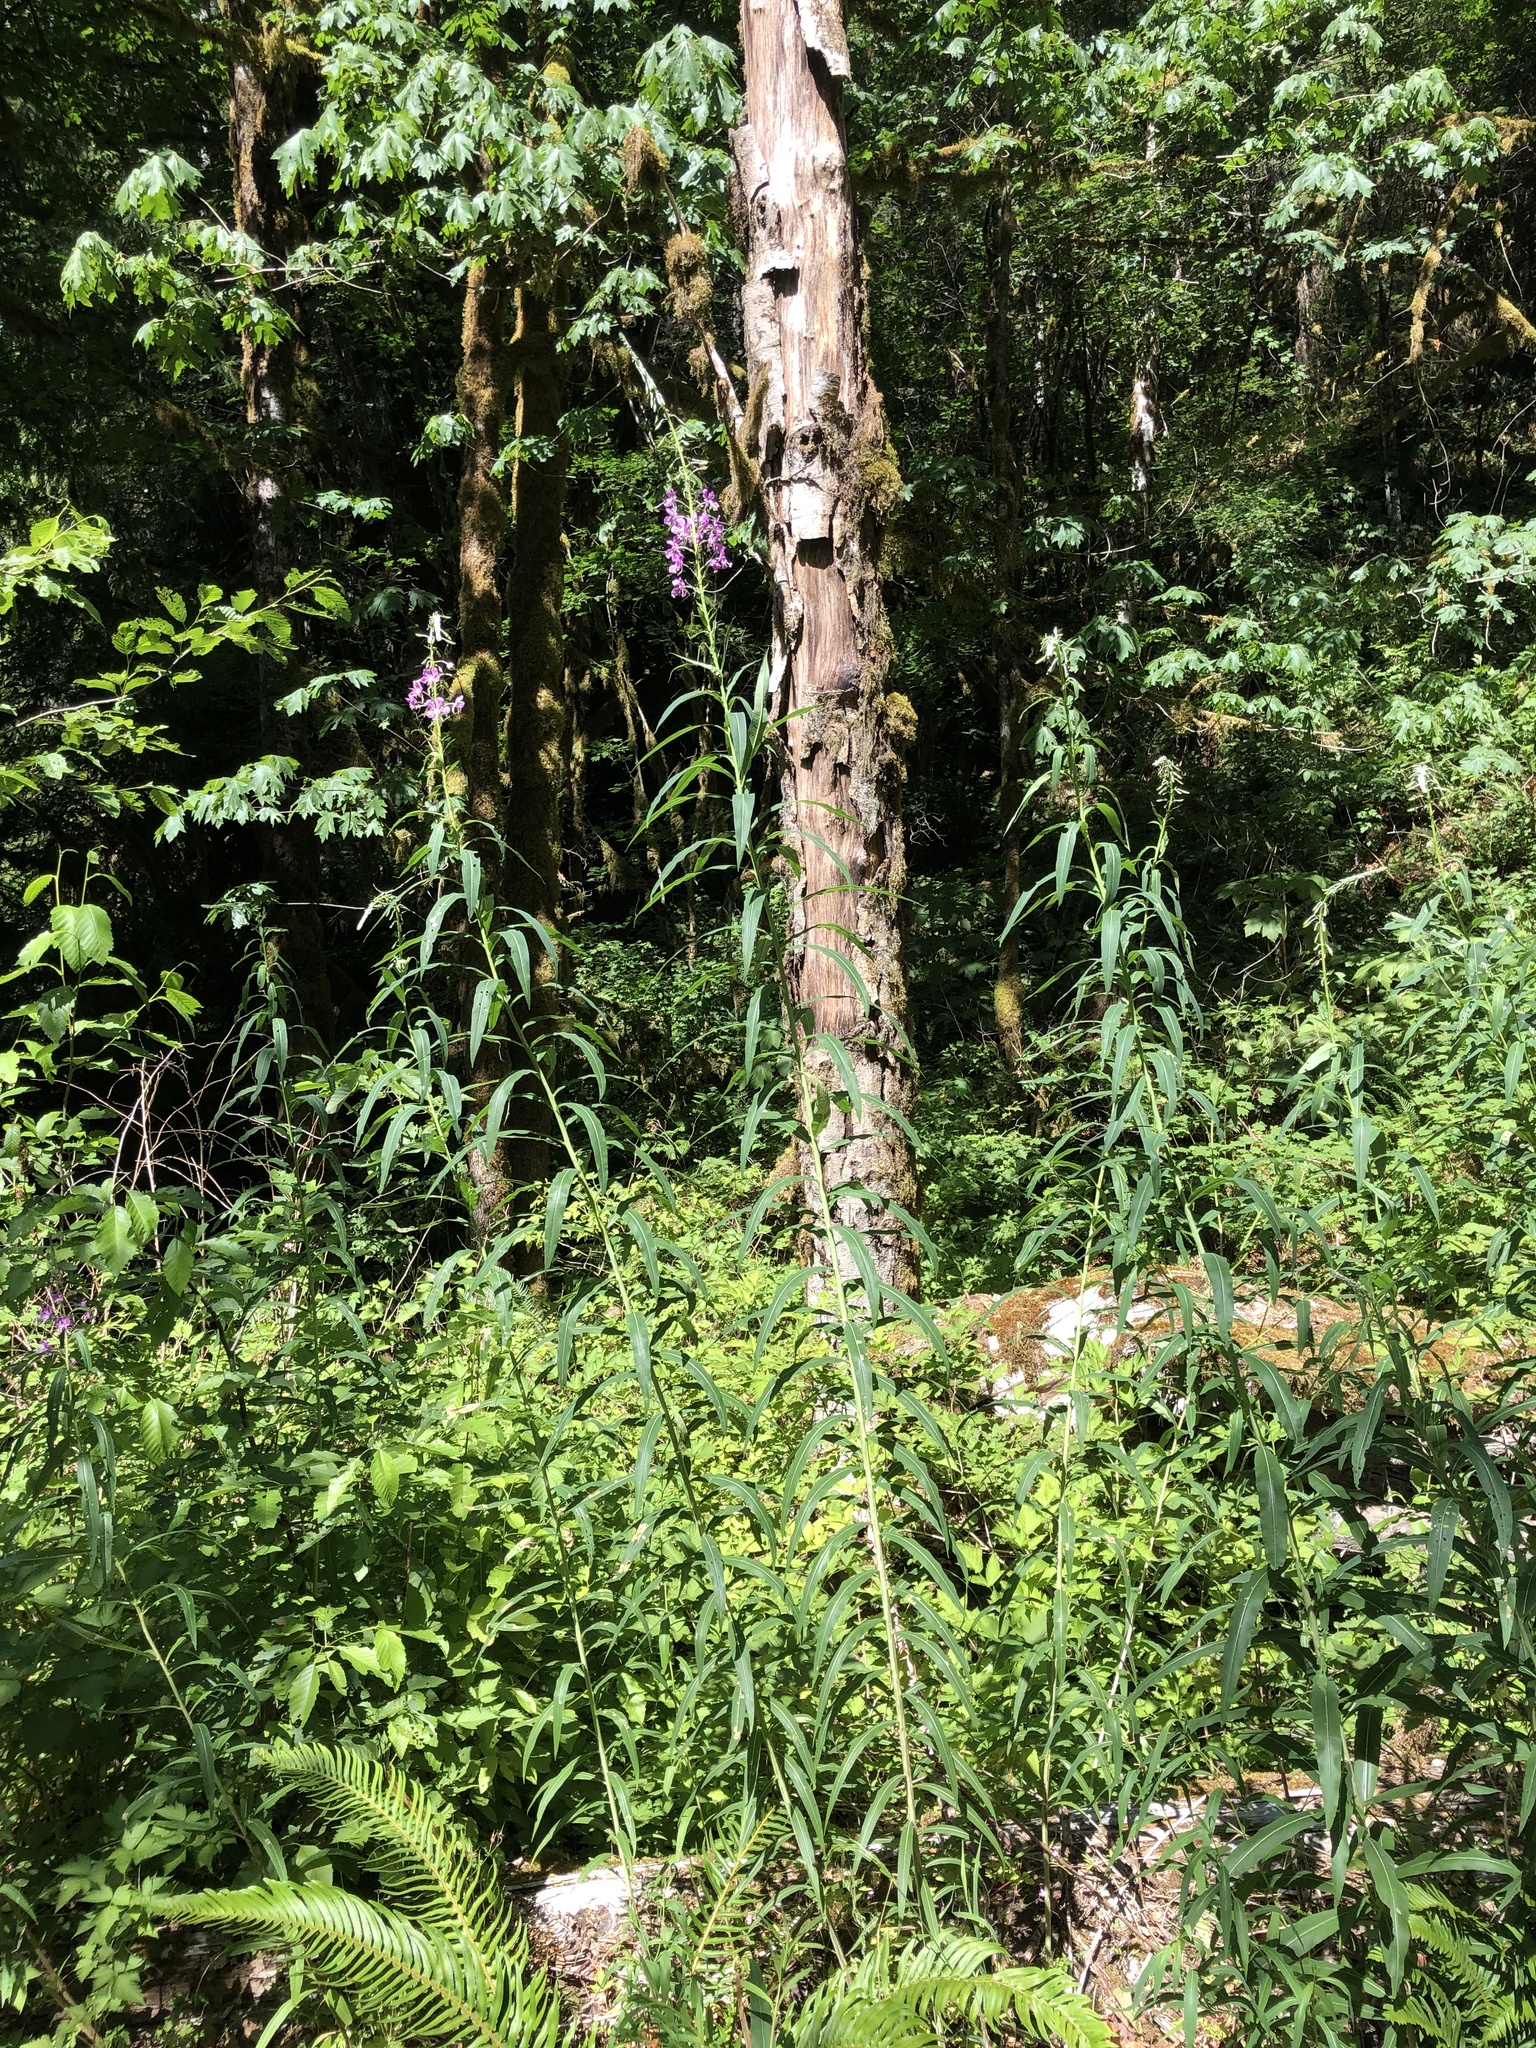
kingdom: Plantae
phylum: Tracheophyta
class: Magnoliopsida
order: Myrtales
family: Onagraceae
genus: Chamaenerion
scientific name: Chamaenerion angustifolium
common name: Fireweed
